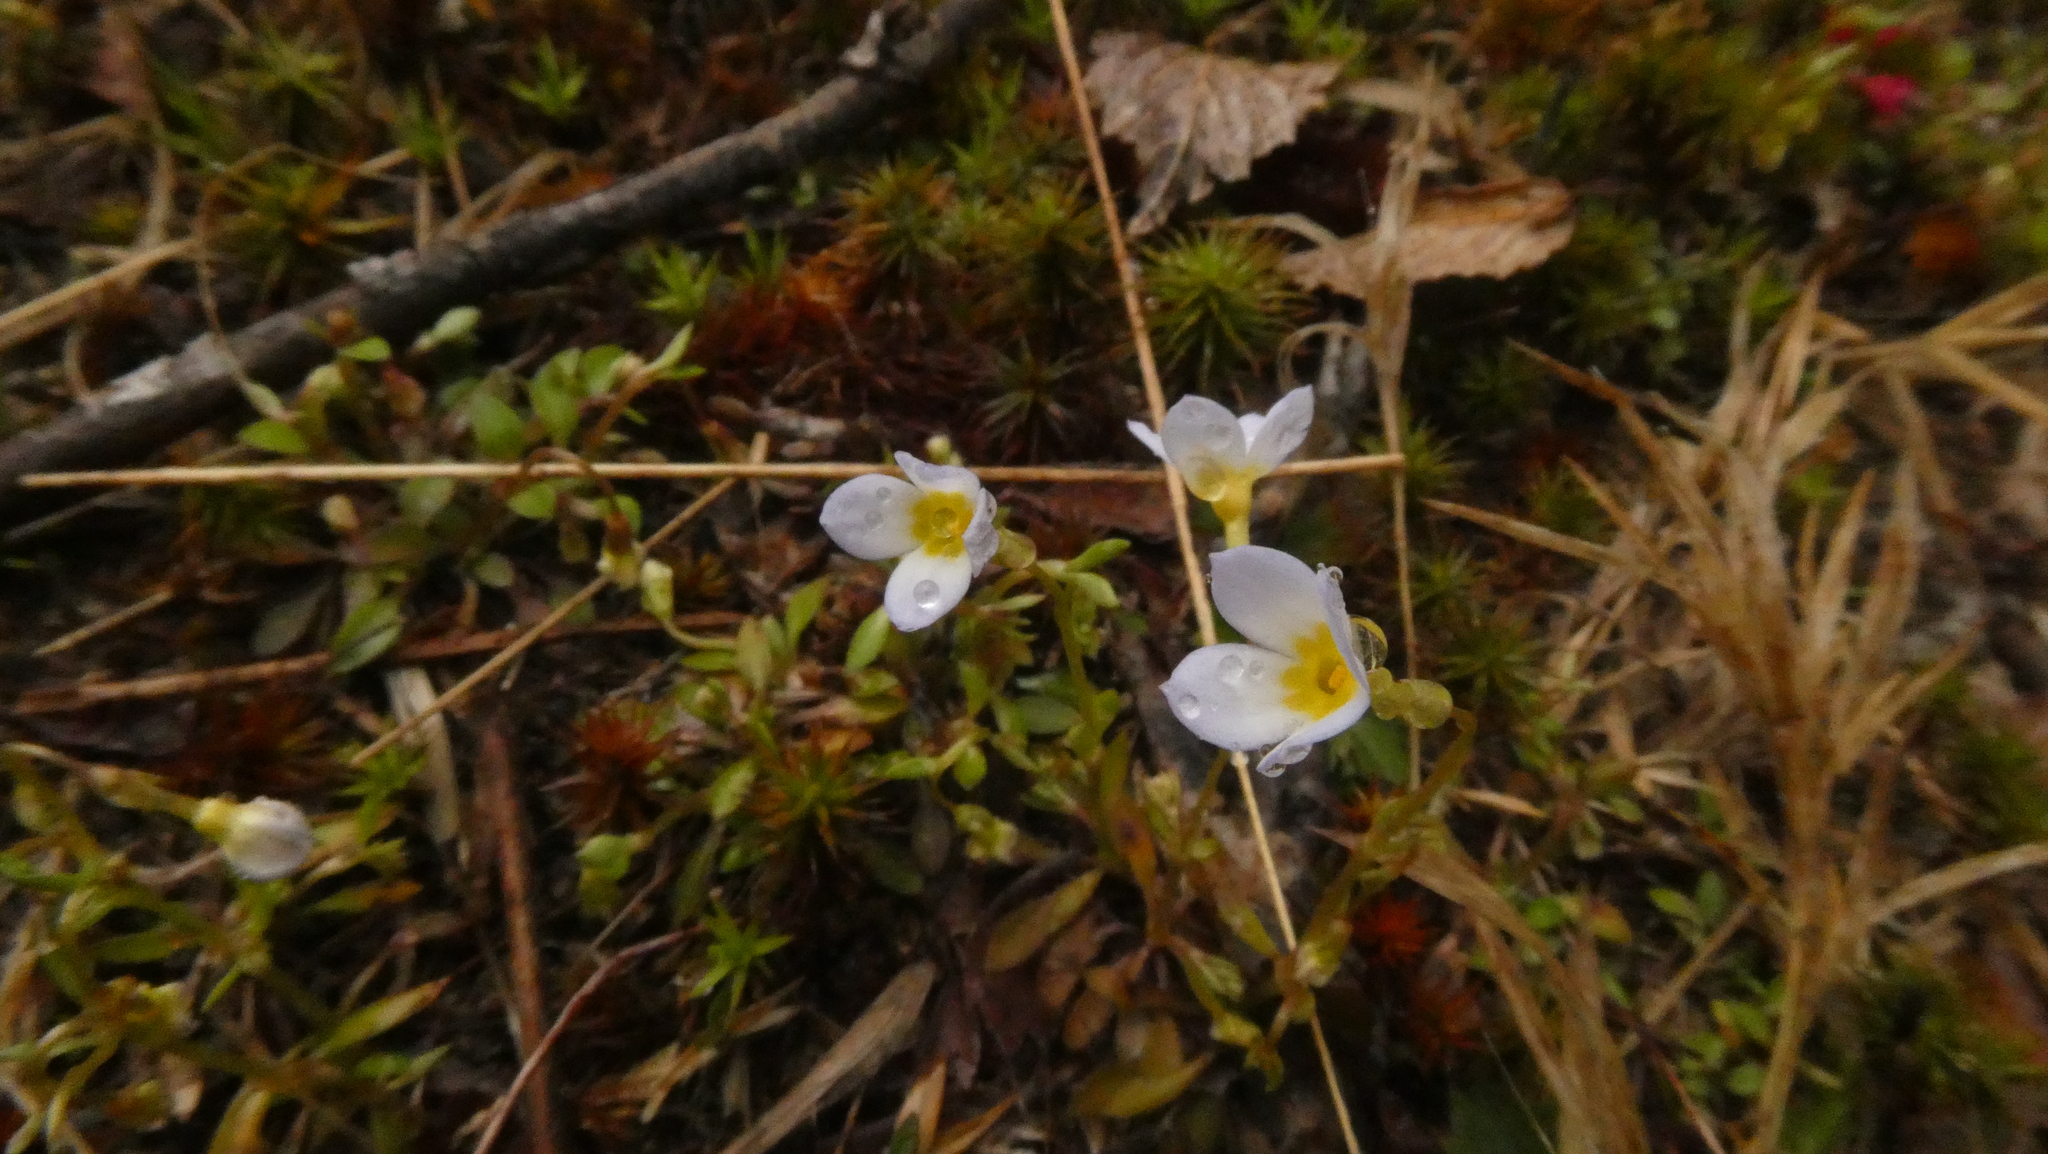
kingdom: Plantae
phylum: Tracheophyta
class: Magnoliopsida
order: Gentianales
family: Rubiaceae
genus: Houstonia
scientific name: Houstonia caerulea
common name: Bluets
